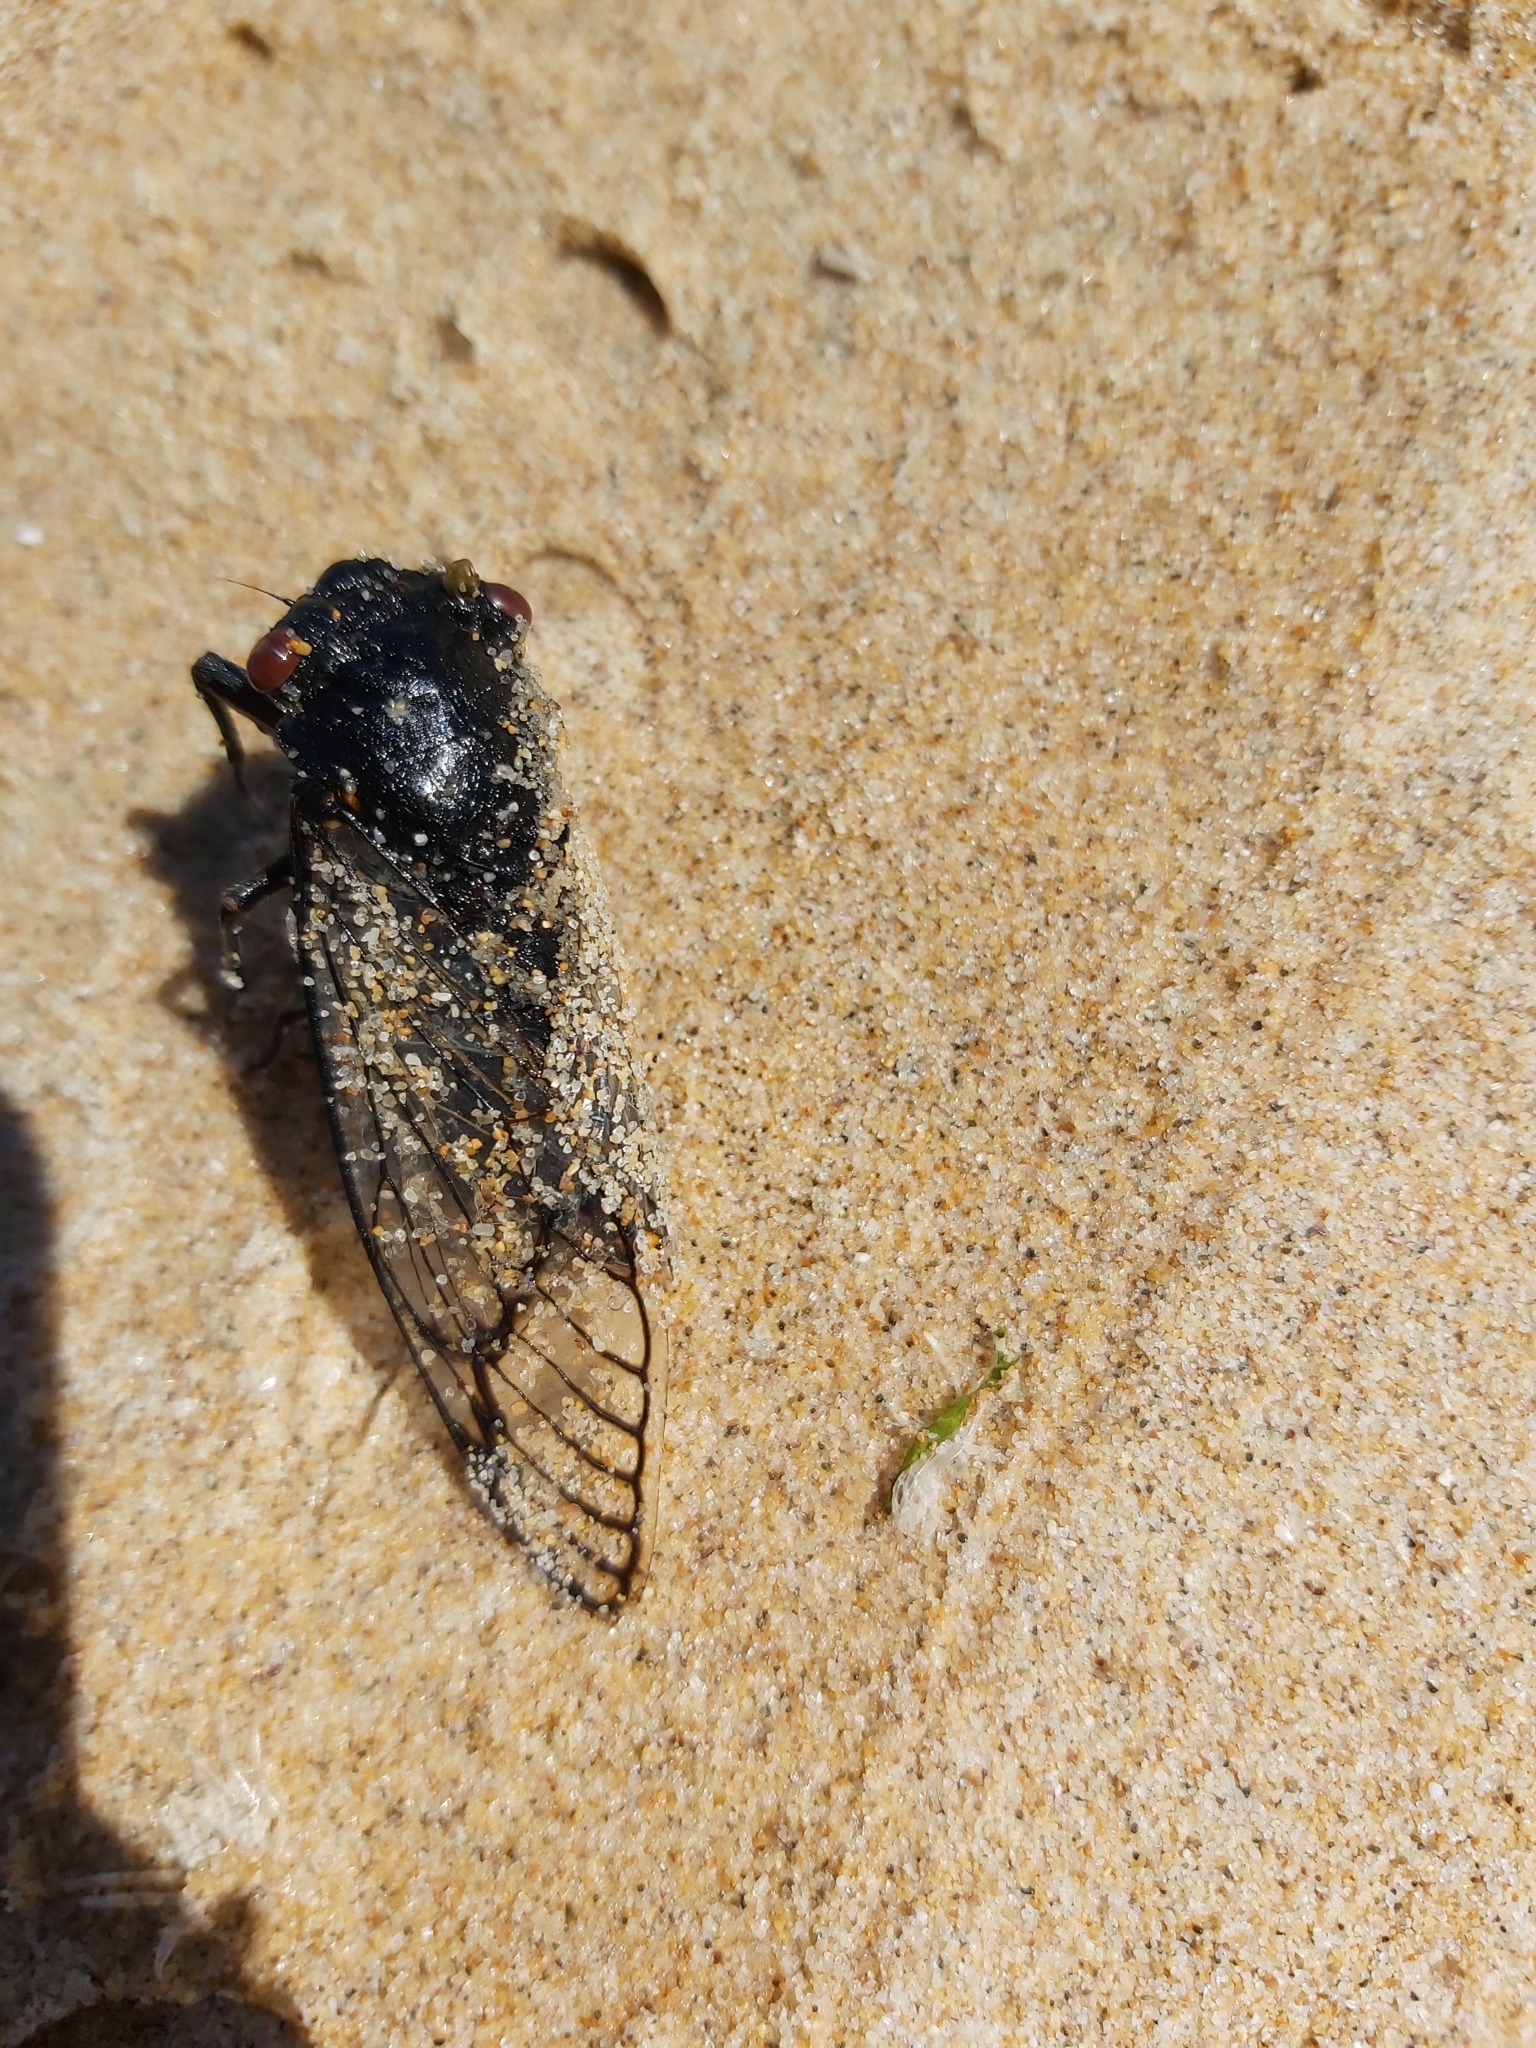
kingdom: Animalia
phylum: Arthropoda
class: Insecta
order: Hemiptera
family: Cicadidae
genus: Psaltoda
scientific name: Psaltoda moerens
